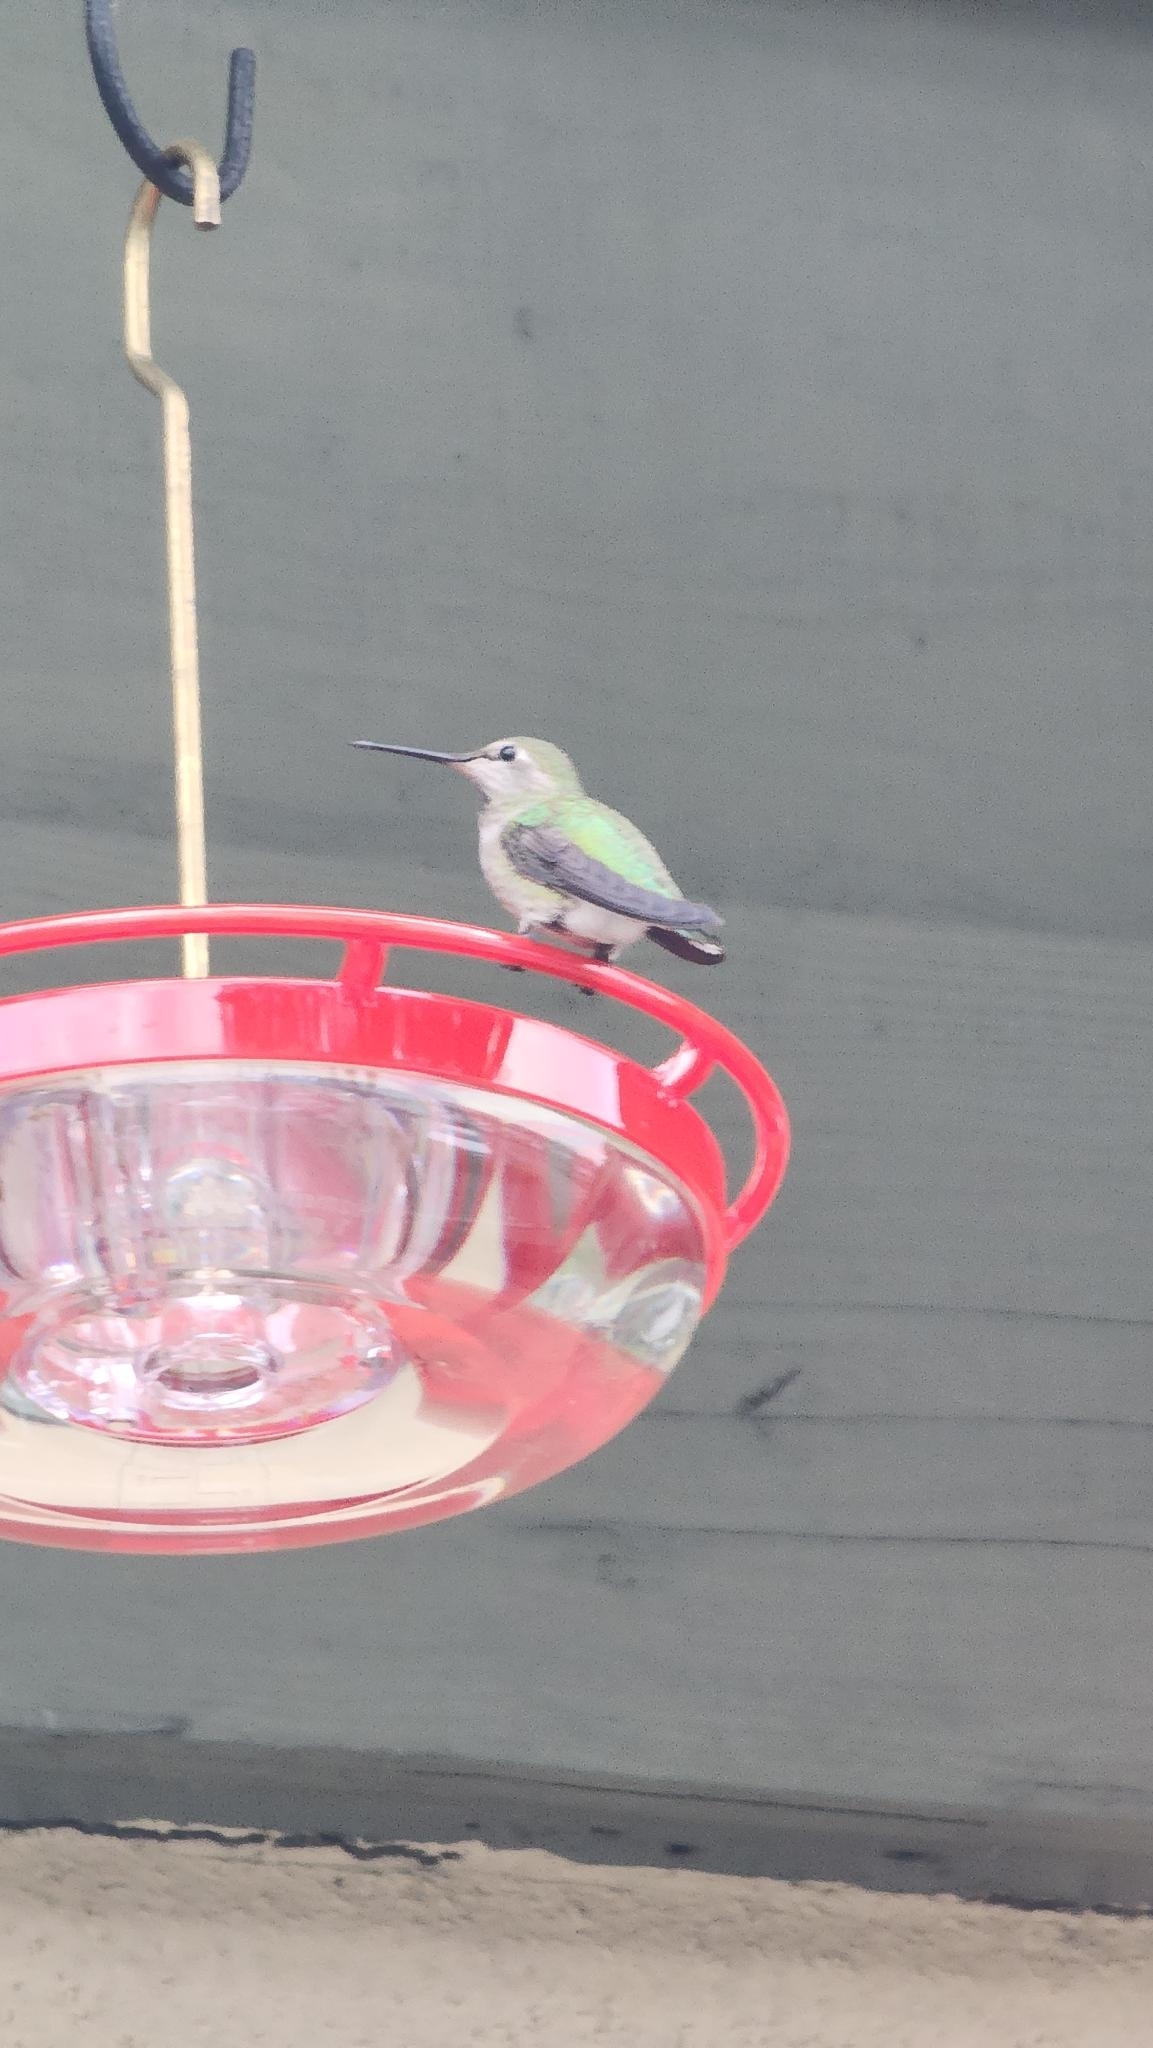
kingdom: Animalia
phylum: Chordata
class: Aves
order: Apodiformes
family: Trochilidae
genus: Calypte
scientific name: Calypte anna
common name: Anna's hummingbird
